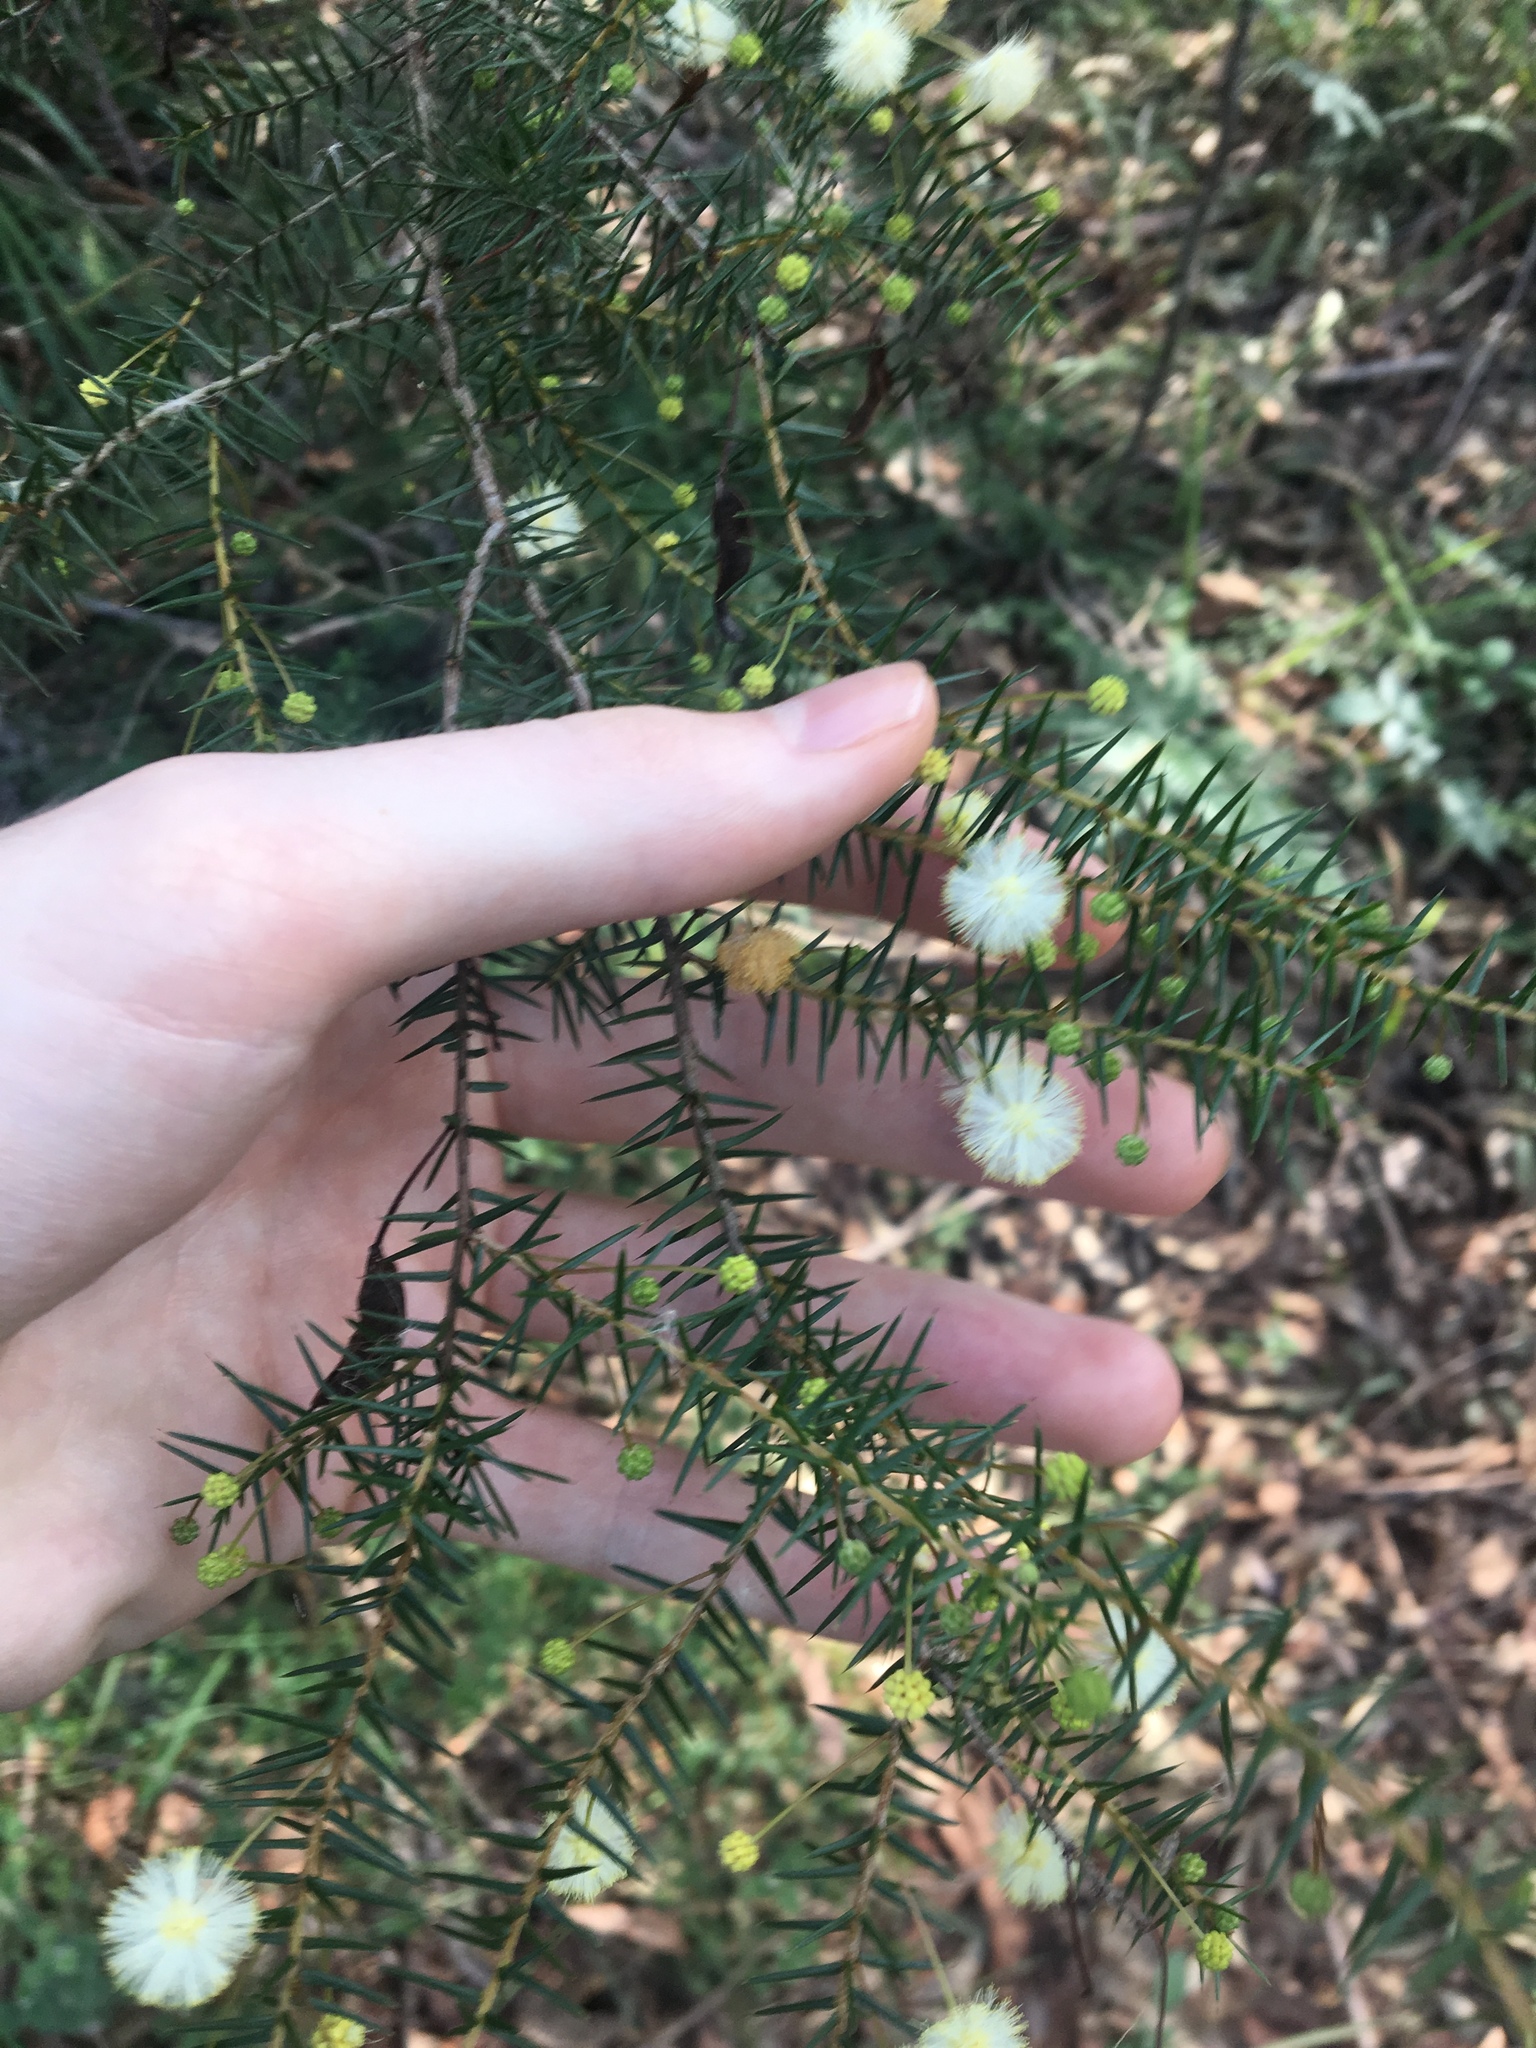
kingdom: Plantae
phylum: Tracheophyta
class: Magnoliopsida
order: Fabales
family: Fabaceae
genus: Acacia
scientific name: Acacia ulicifolia
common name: Juniper wattle
